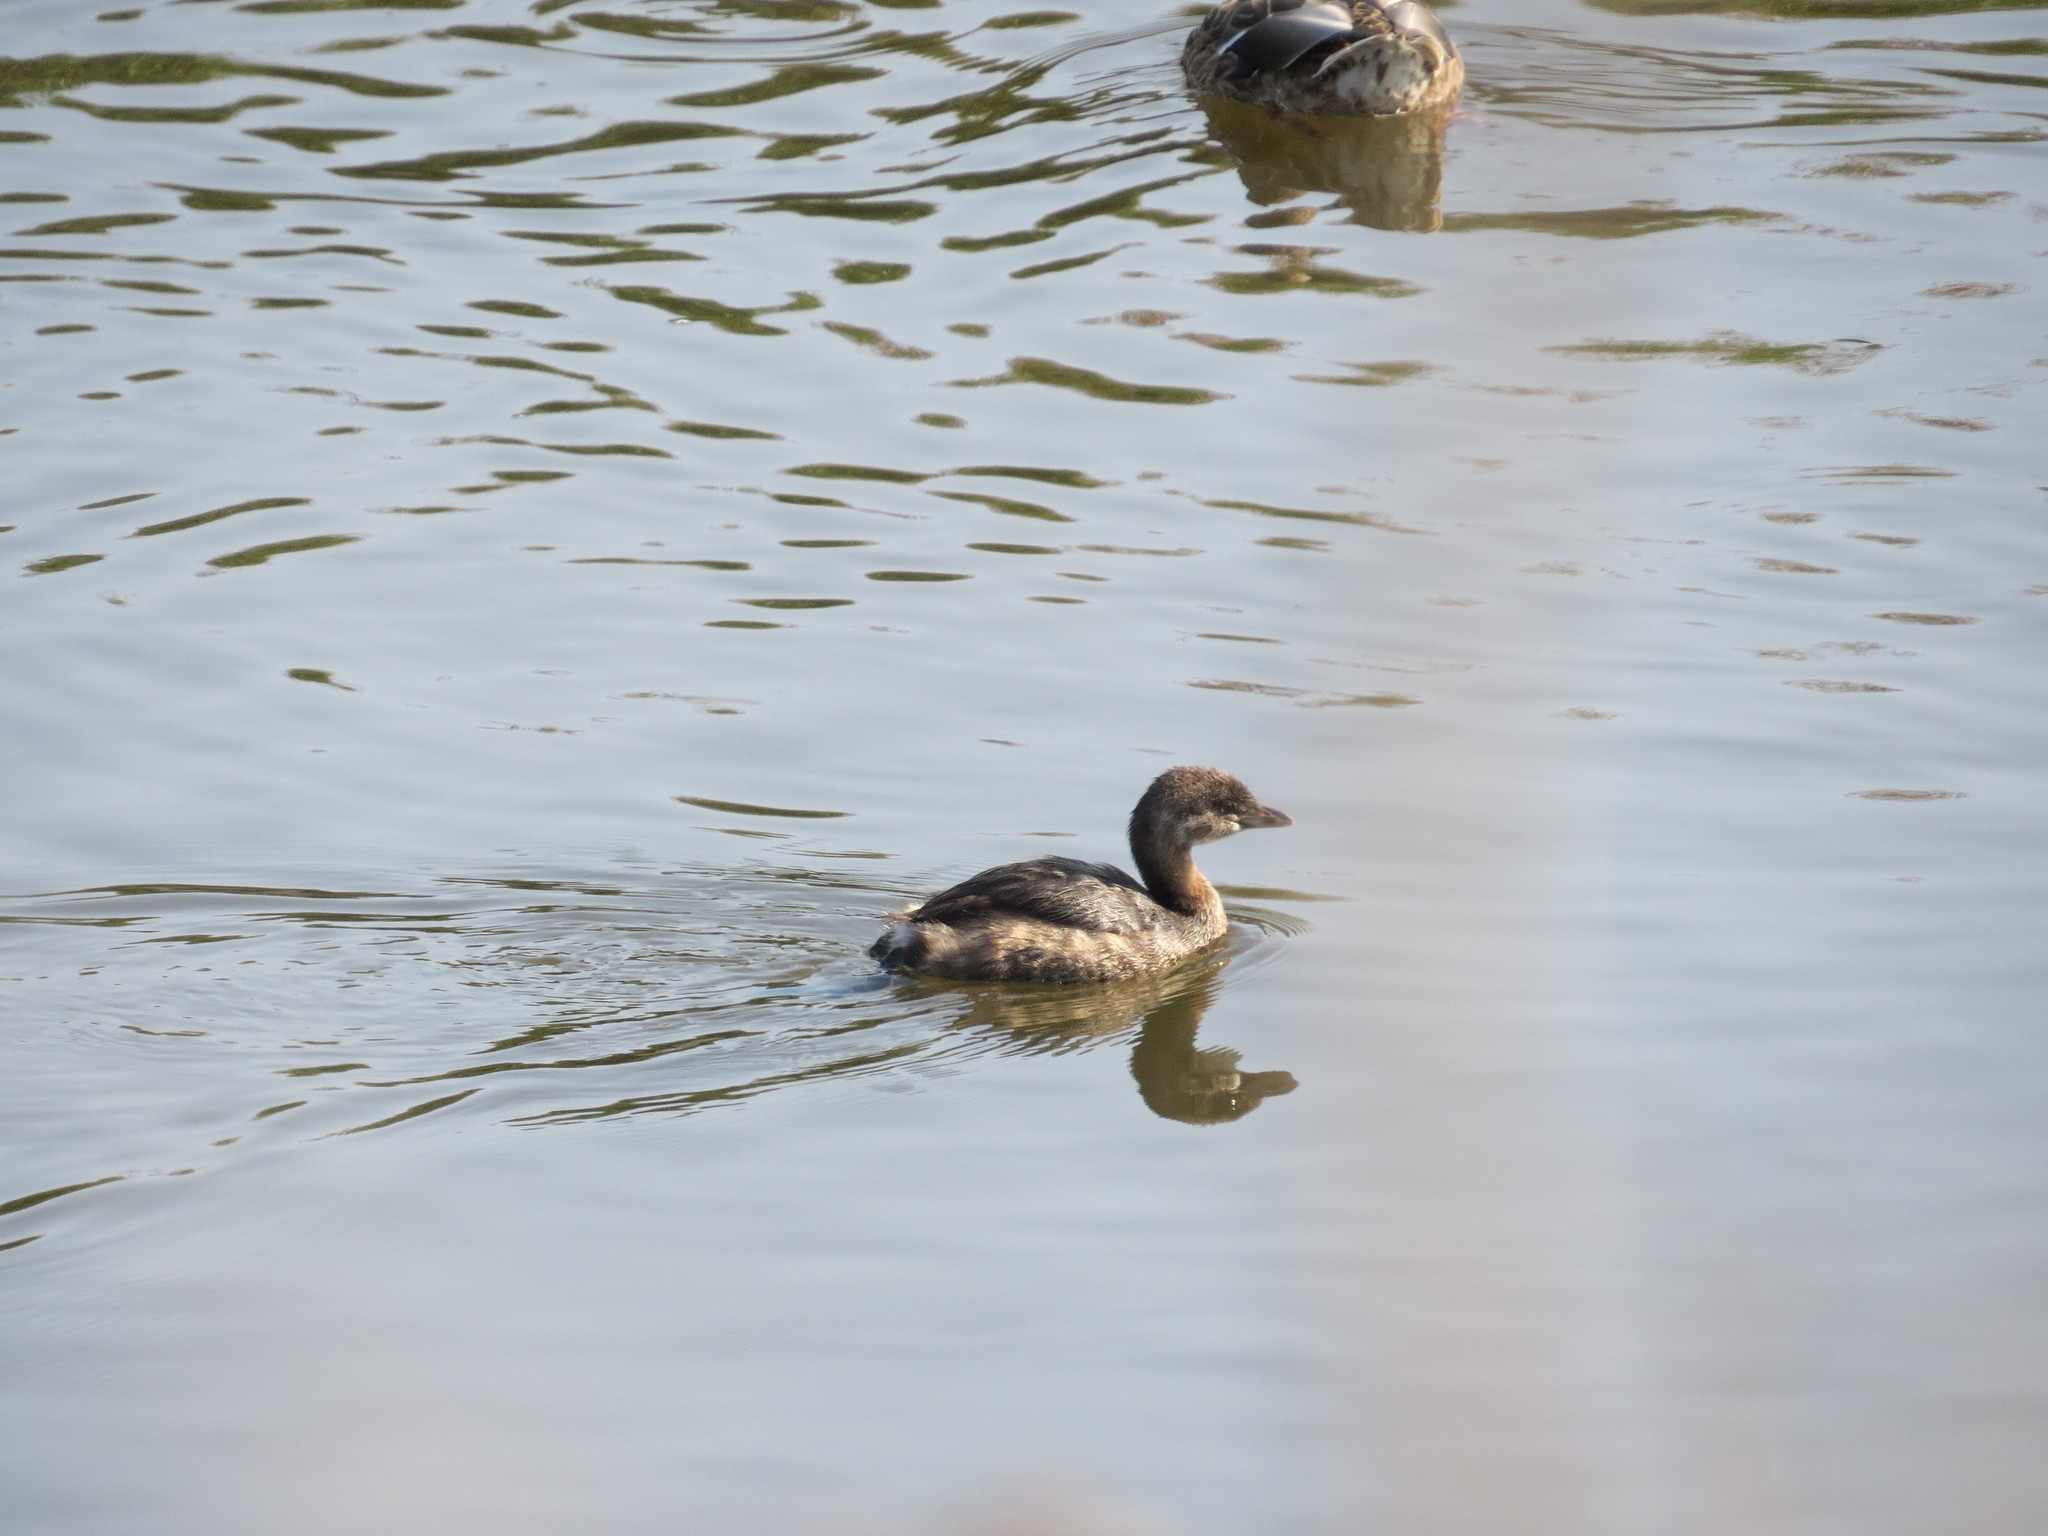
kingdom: Animalia
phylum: Chordata
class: Aves
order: Podicipediformes
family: Podicipedidae
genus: Podilymbus
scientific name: Podilymbus podiceps
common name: Pied-billed grebe
